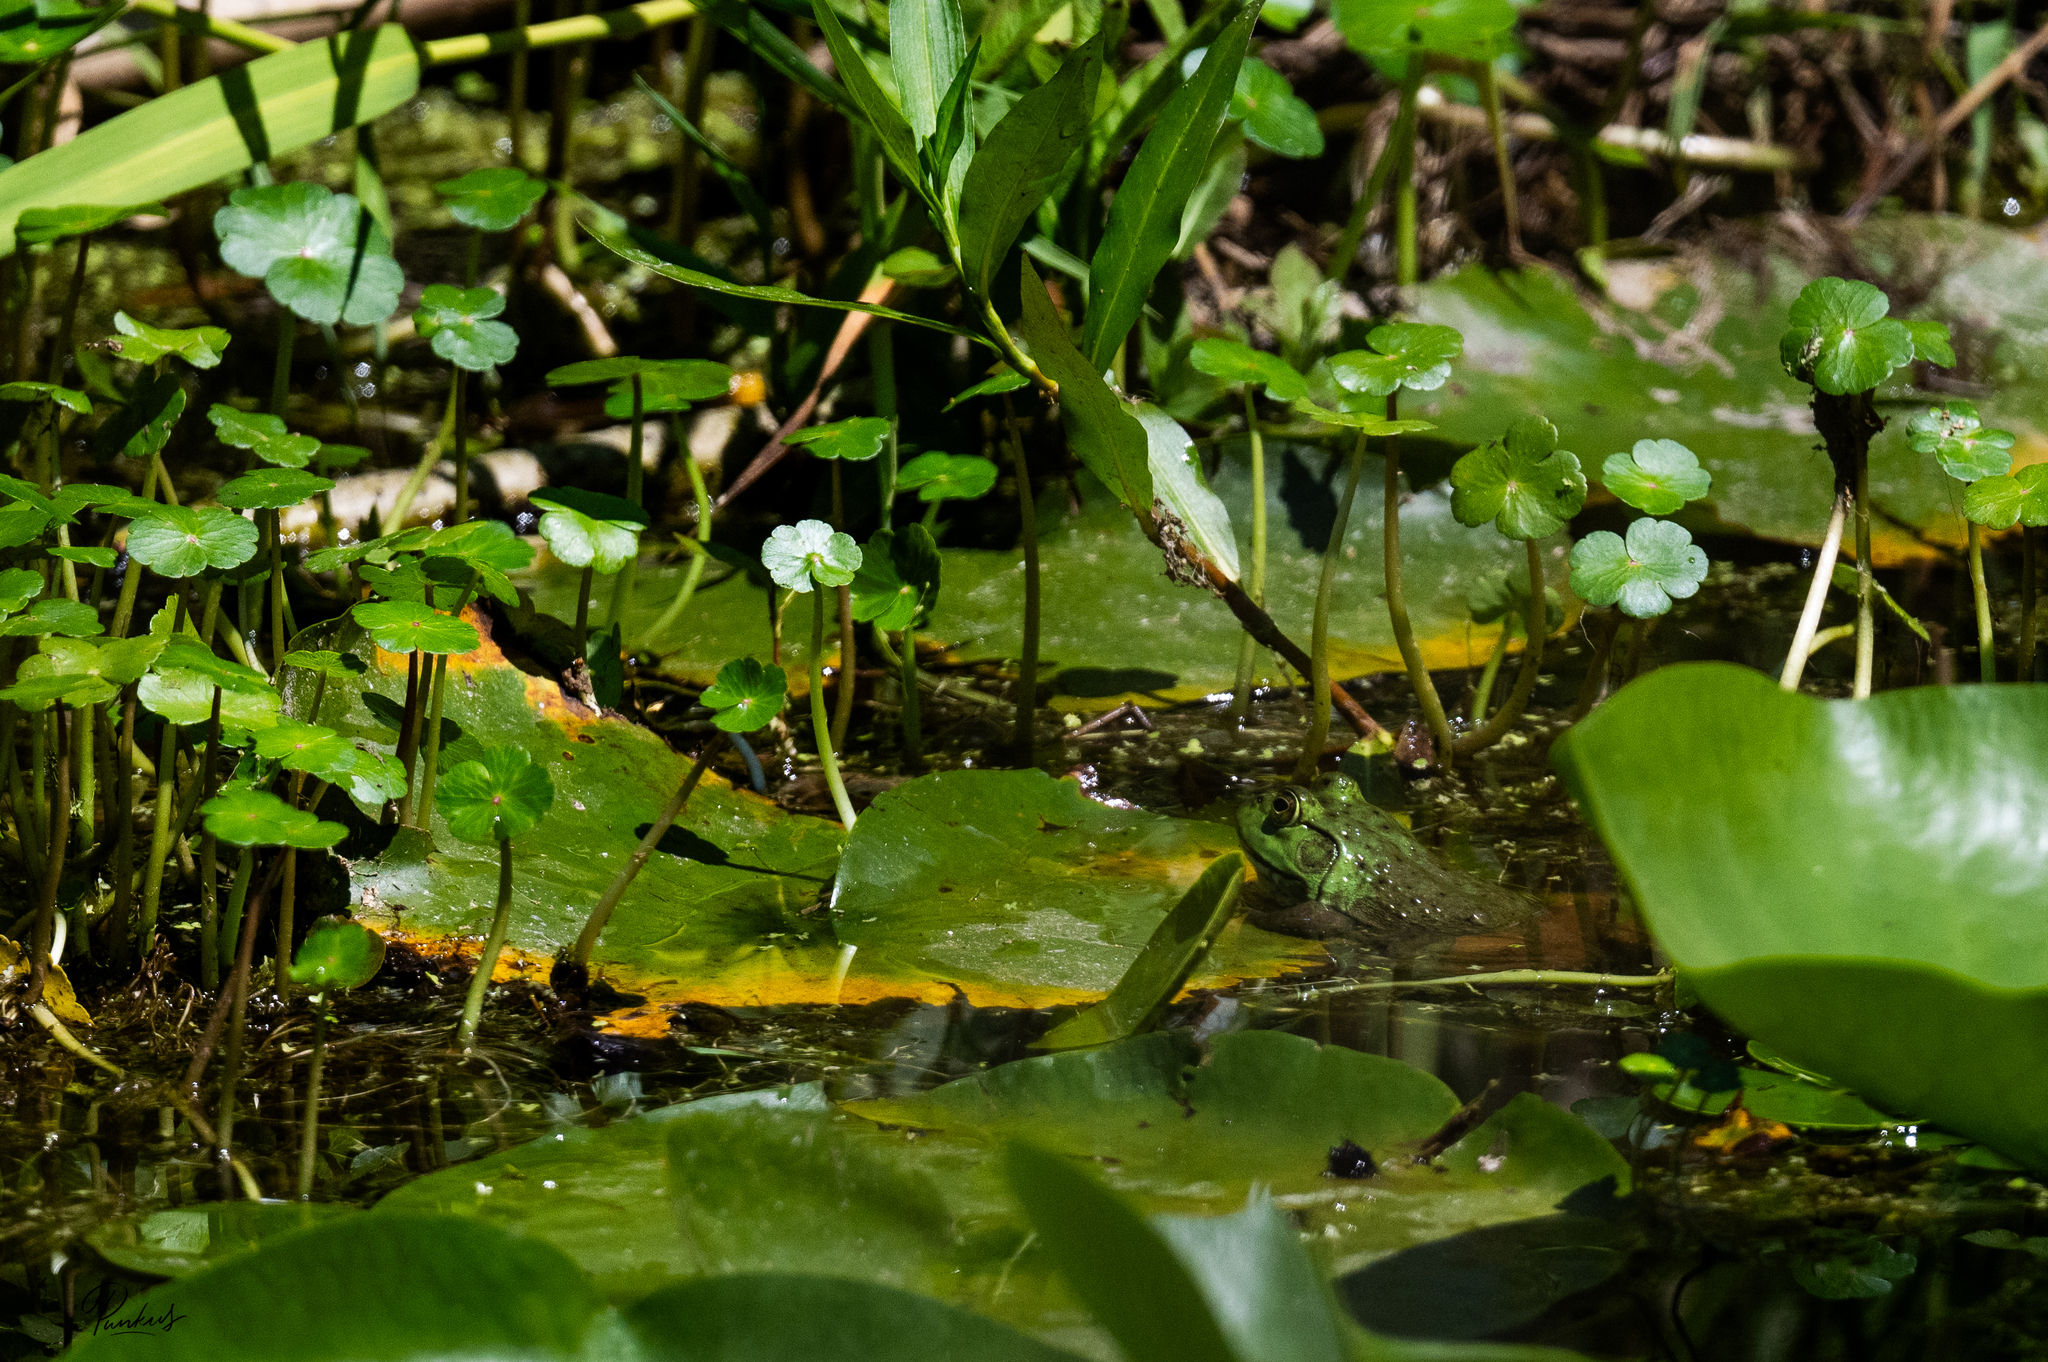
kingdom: Animalia
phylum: Chordata
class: Amphibia
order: Anura
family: Ranidae
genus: Lithobates
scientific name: Lithobates catesbeianus
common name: American bullfrog
